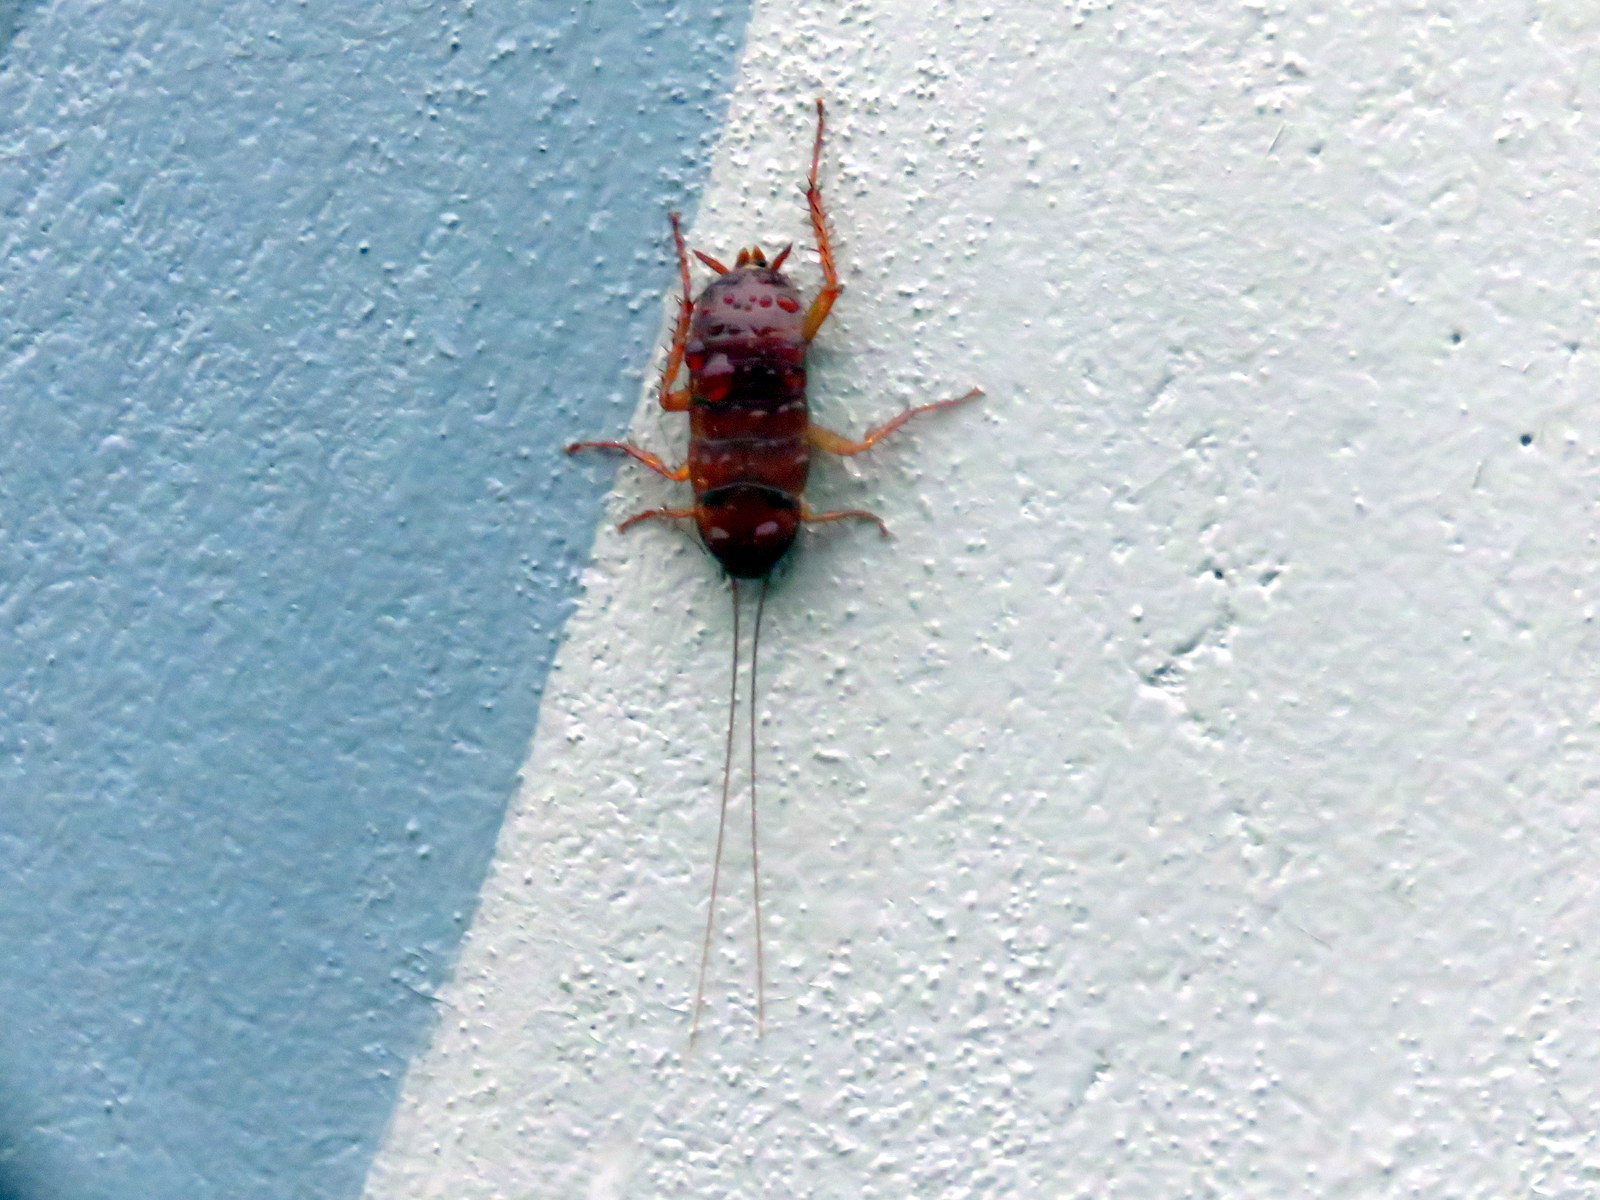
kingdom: Animalia
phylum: Arthropoda
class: Insecta
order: Blattodea
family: Blattidae
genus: Periplaneta
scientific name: Periplaneta americana
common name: American cockroach
